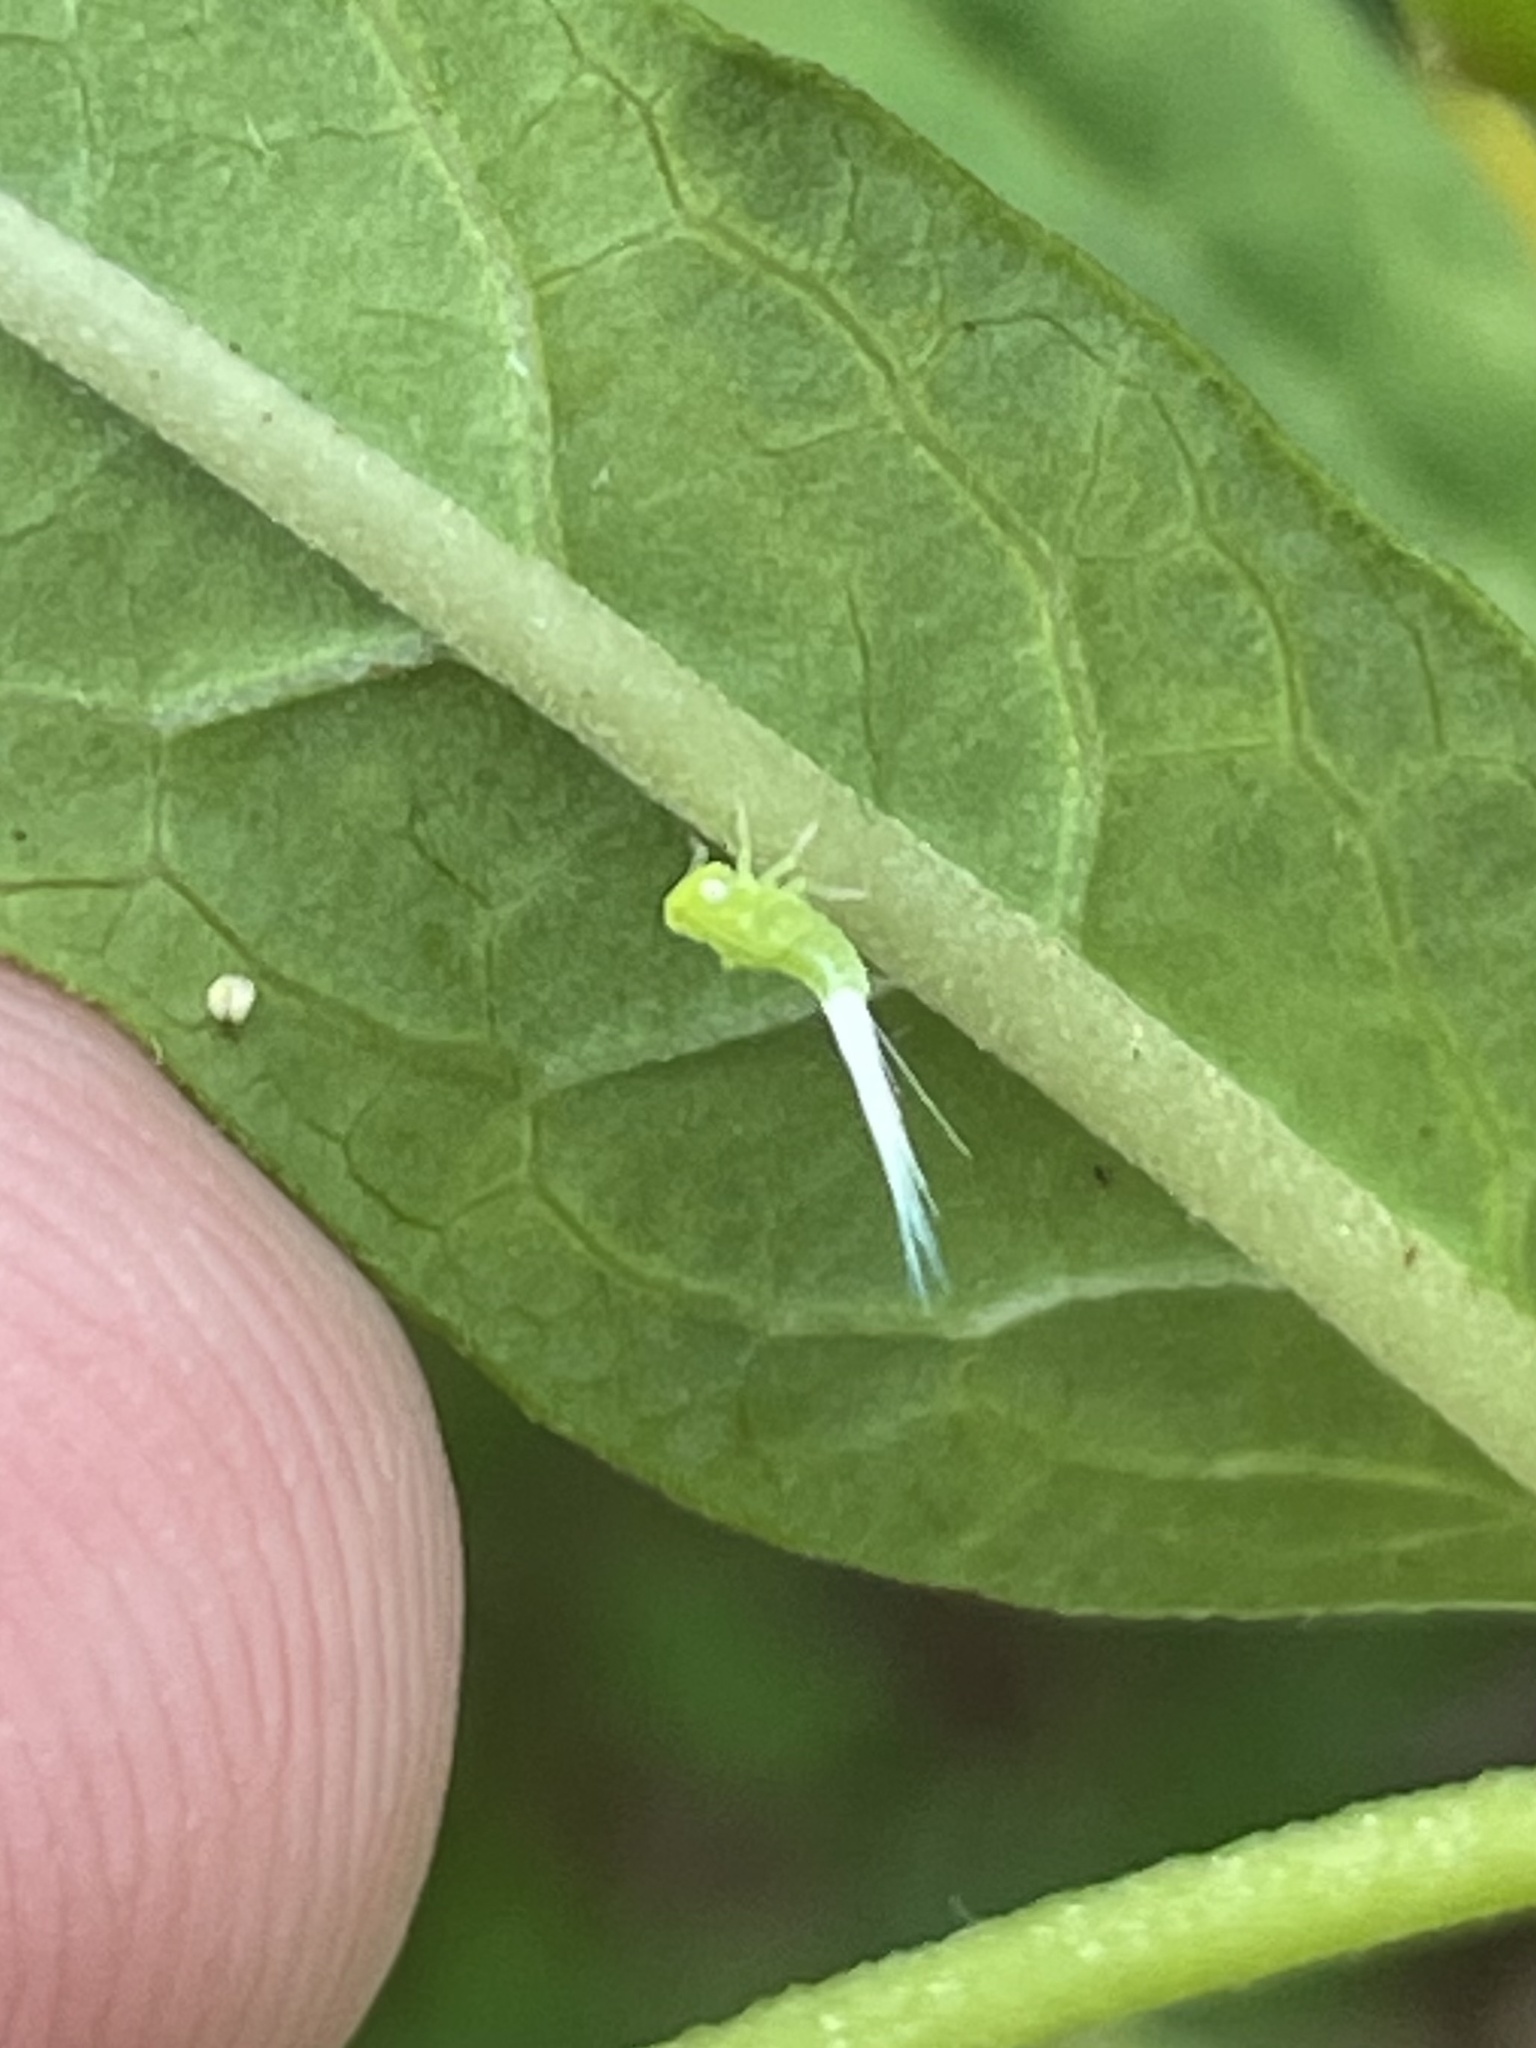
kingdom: Animalia
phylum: Arthropoda
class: Insecta
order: Hemiptera
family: Tropiduchidae
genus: Dictyonissus
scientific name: Dictyonissus griphus
